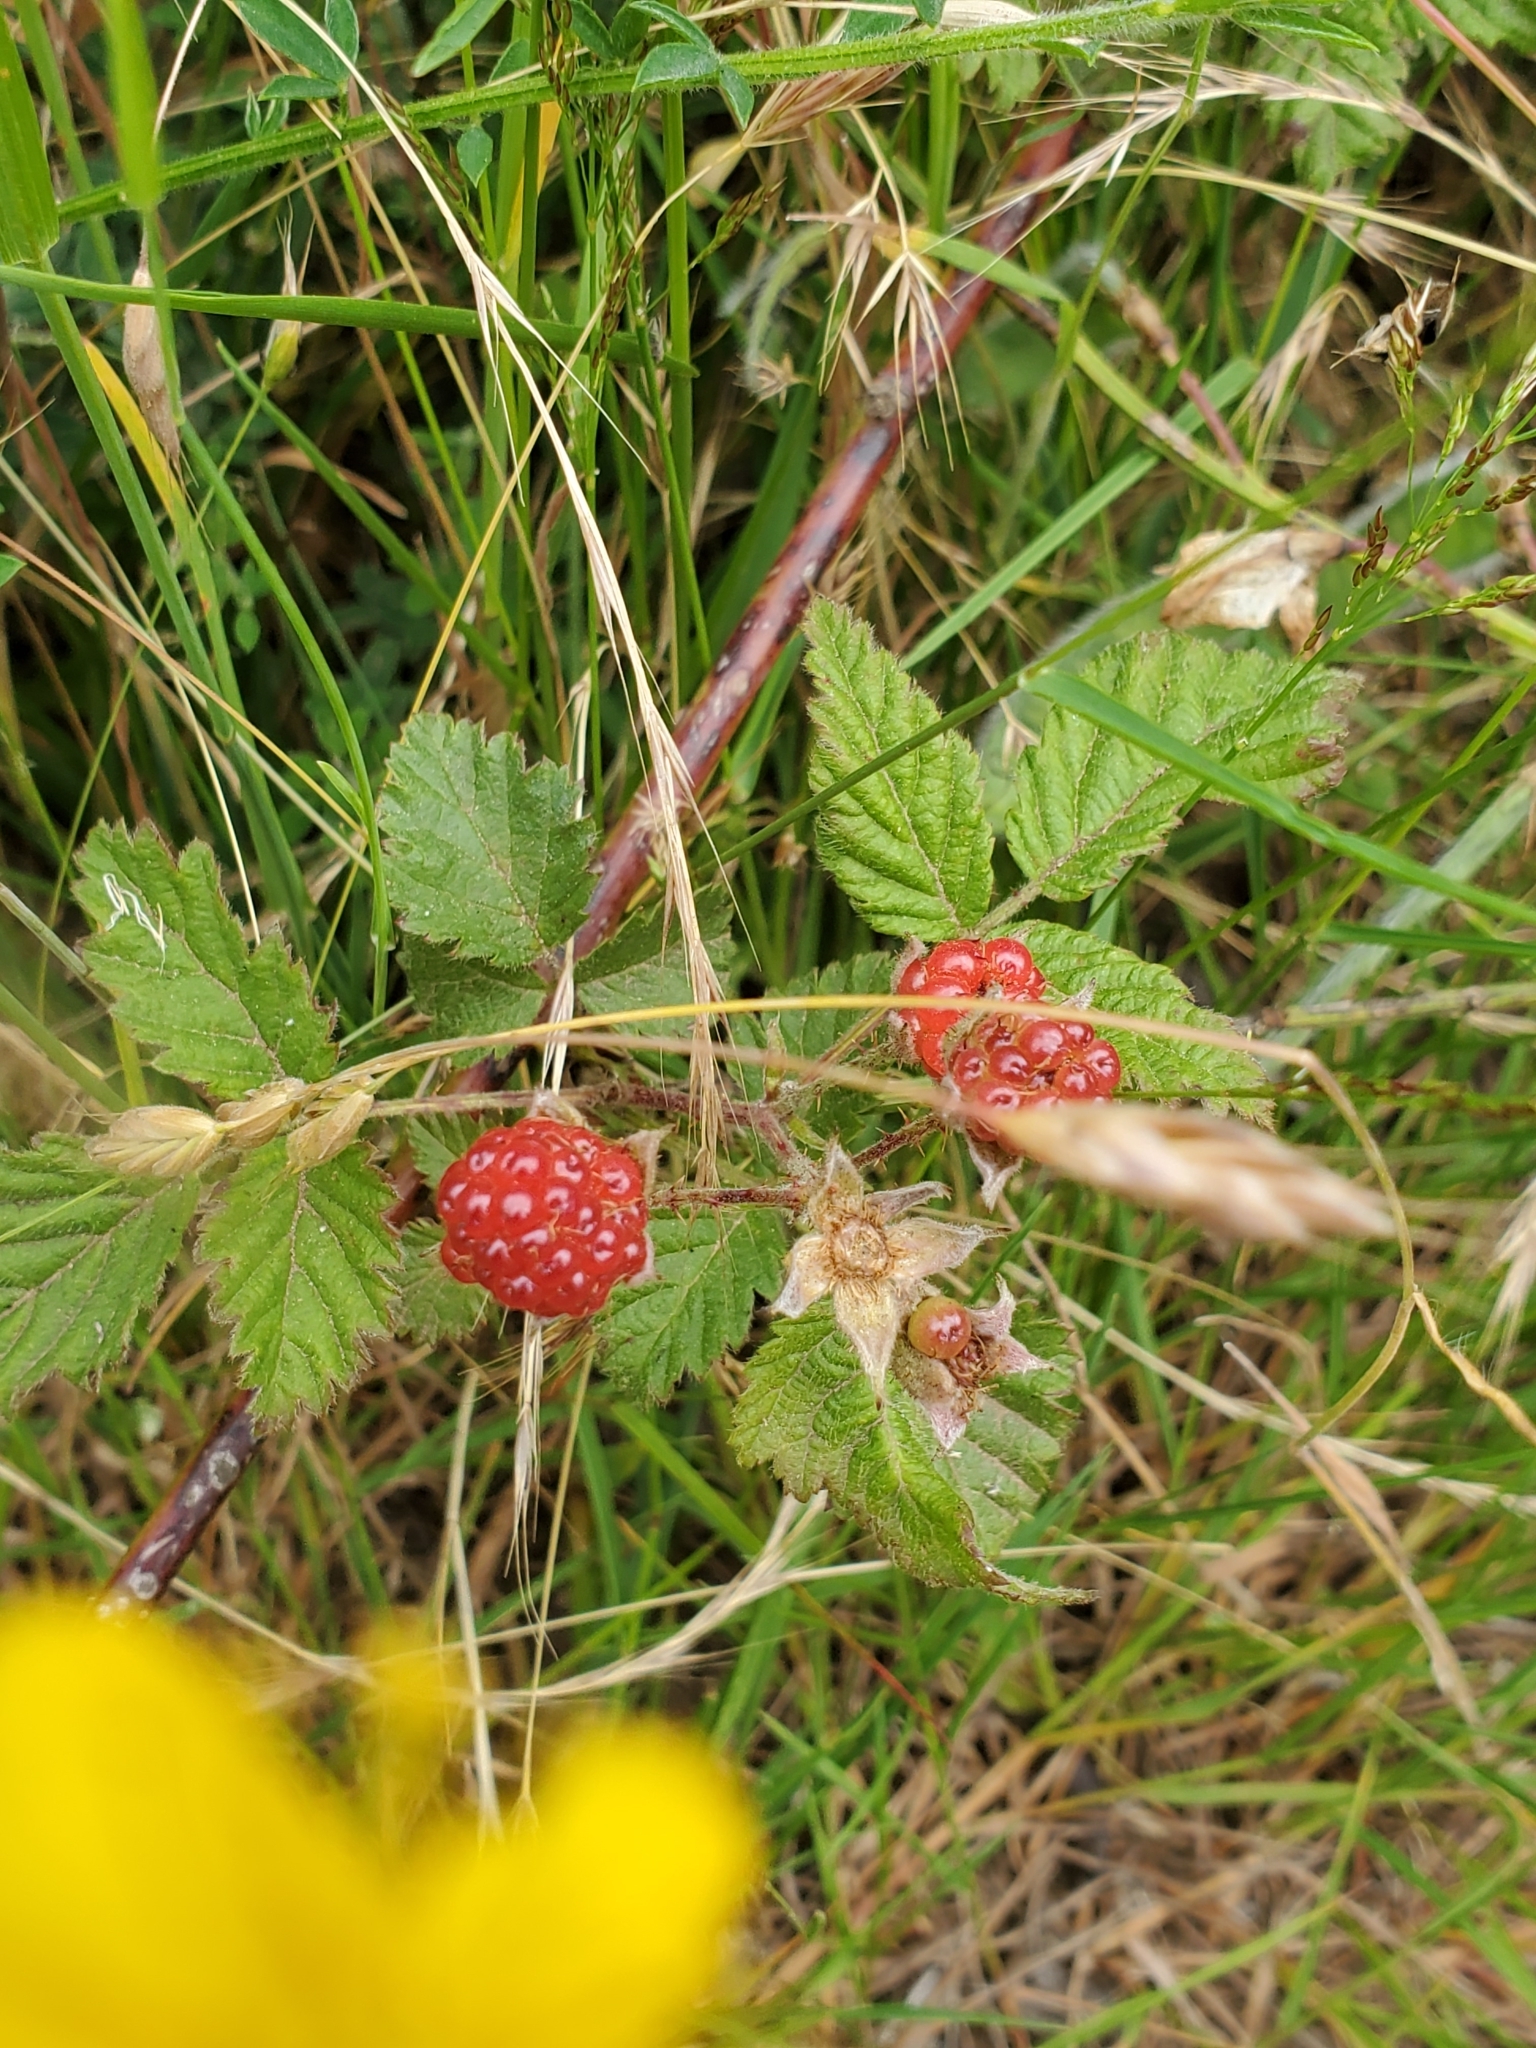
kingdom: Plantae
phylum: Tracheophyta
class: Magnoliopsida
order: Rosales
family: Rosaceae
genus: Rubus
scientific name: Rubus ursinus
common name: Pacific blackberry
